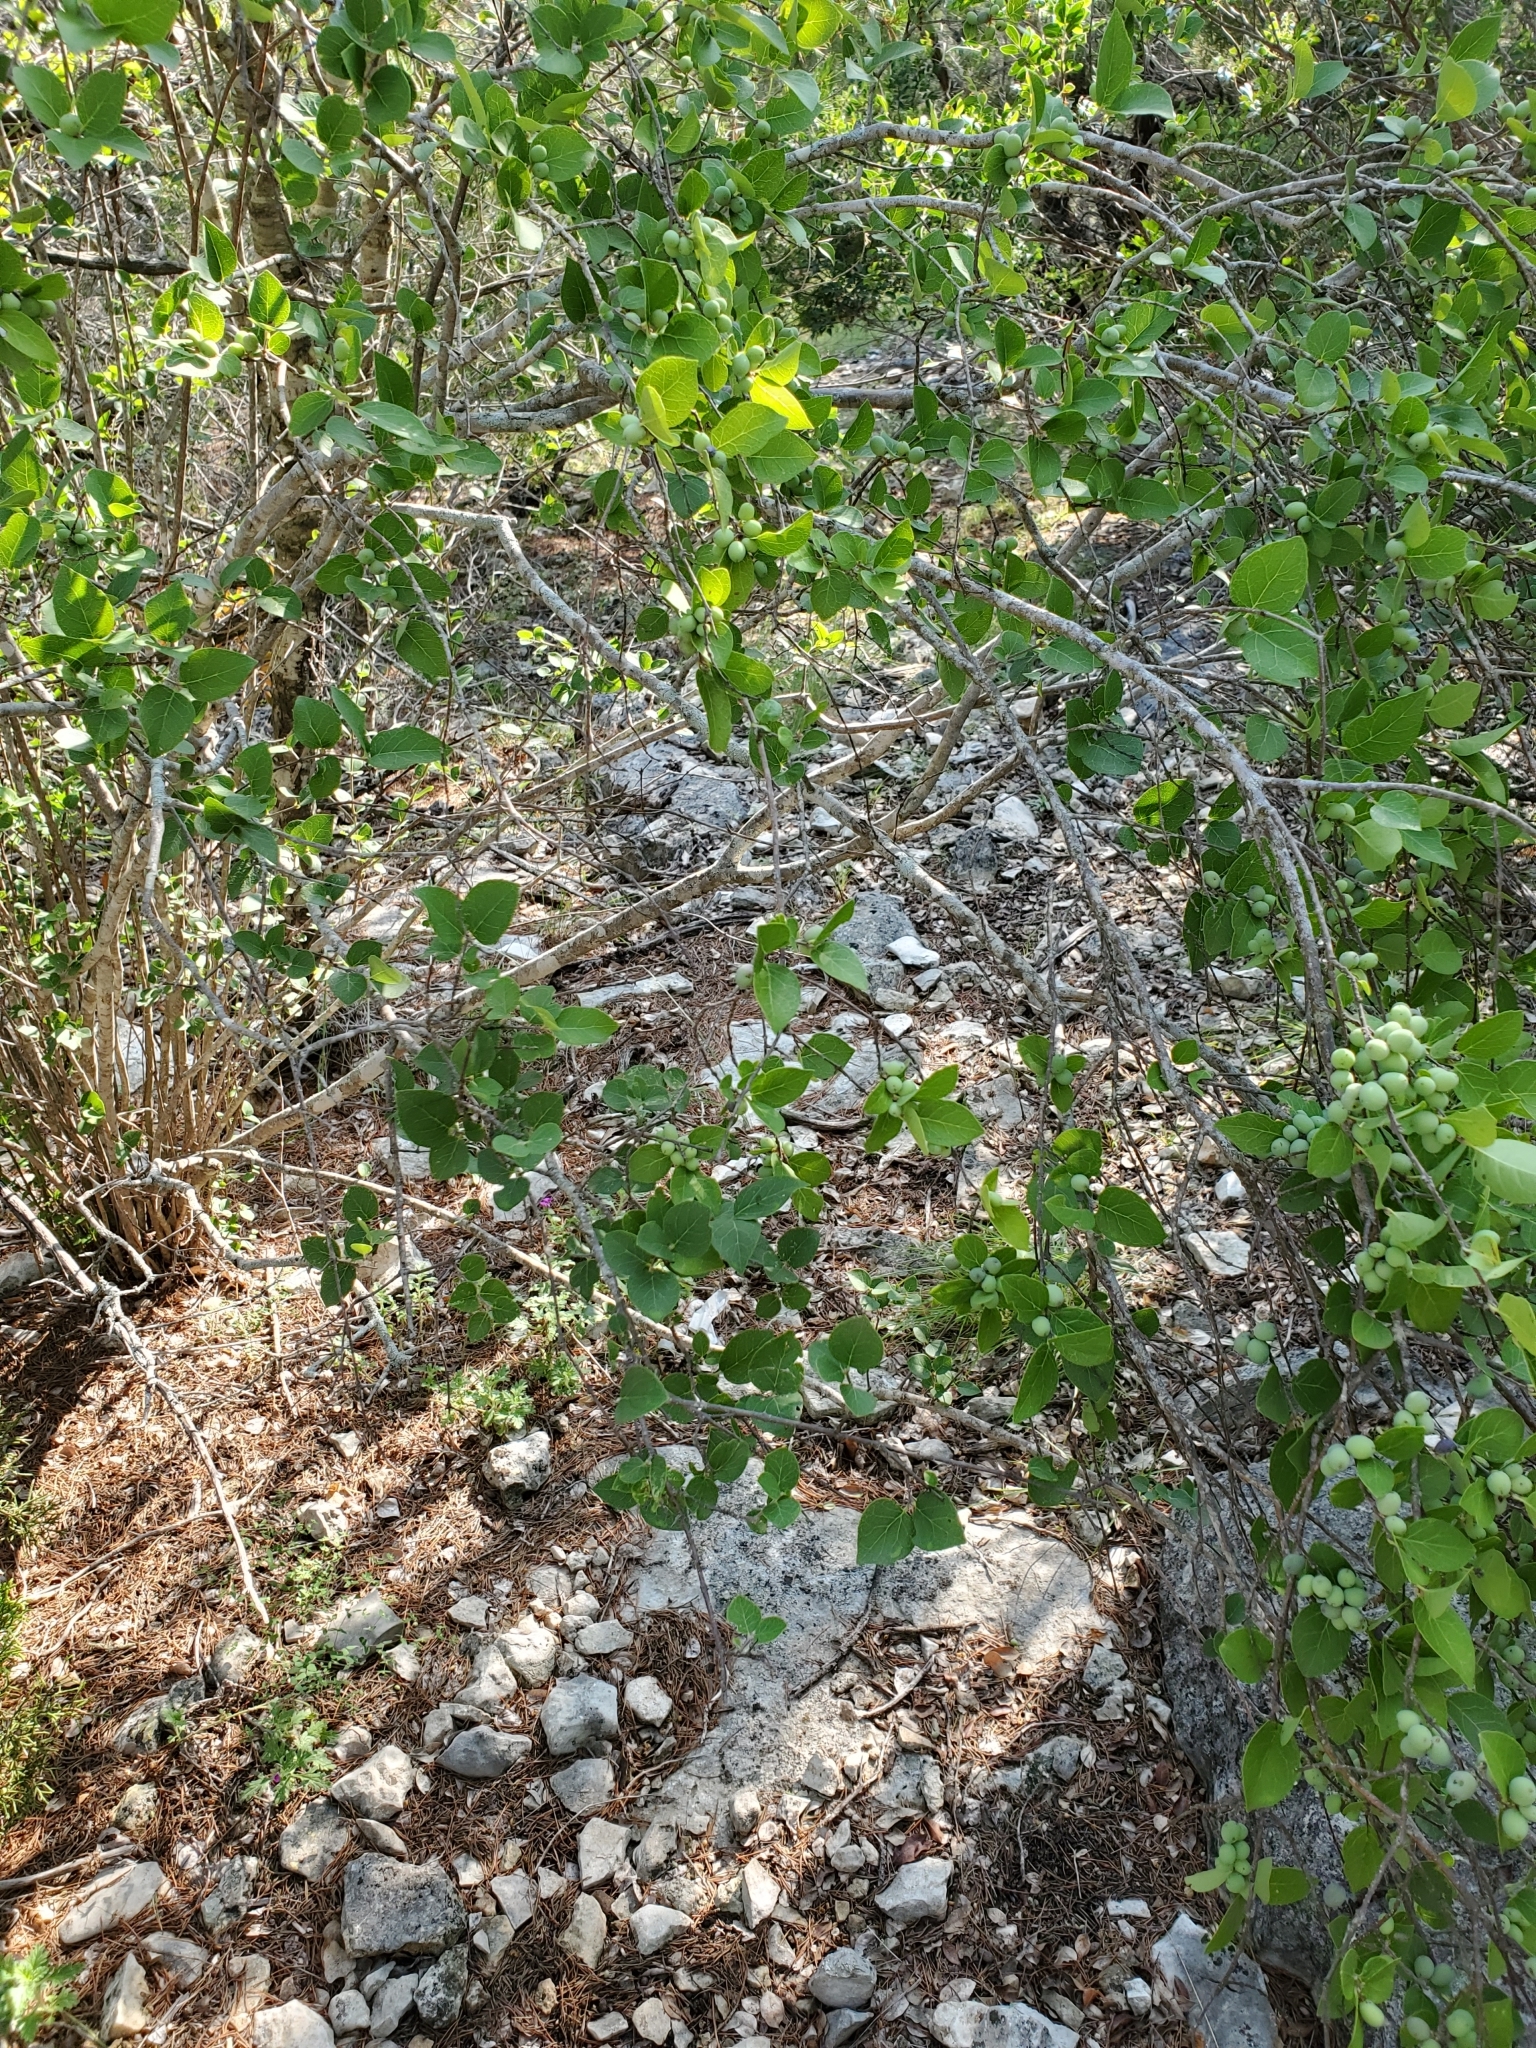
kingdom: Plantae
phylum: Tracheophyta
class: Magnoliopsida
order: Lamiales
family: Oleaceae
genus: Forestiera
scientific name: Forestiera reticulata
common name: Netleaf swamp-privet
